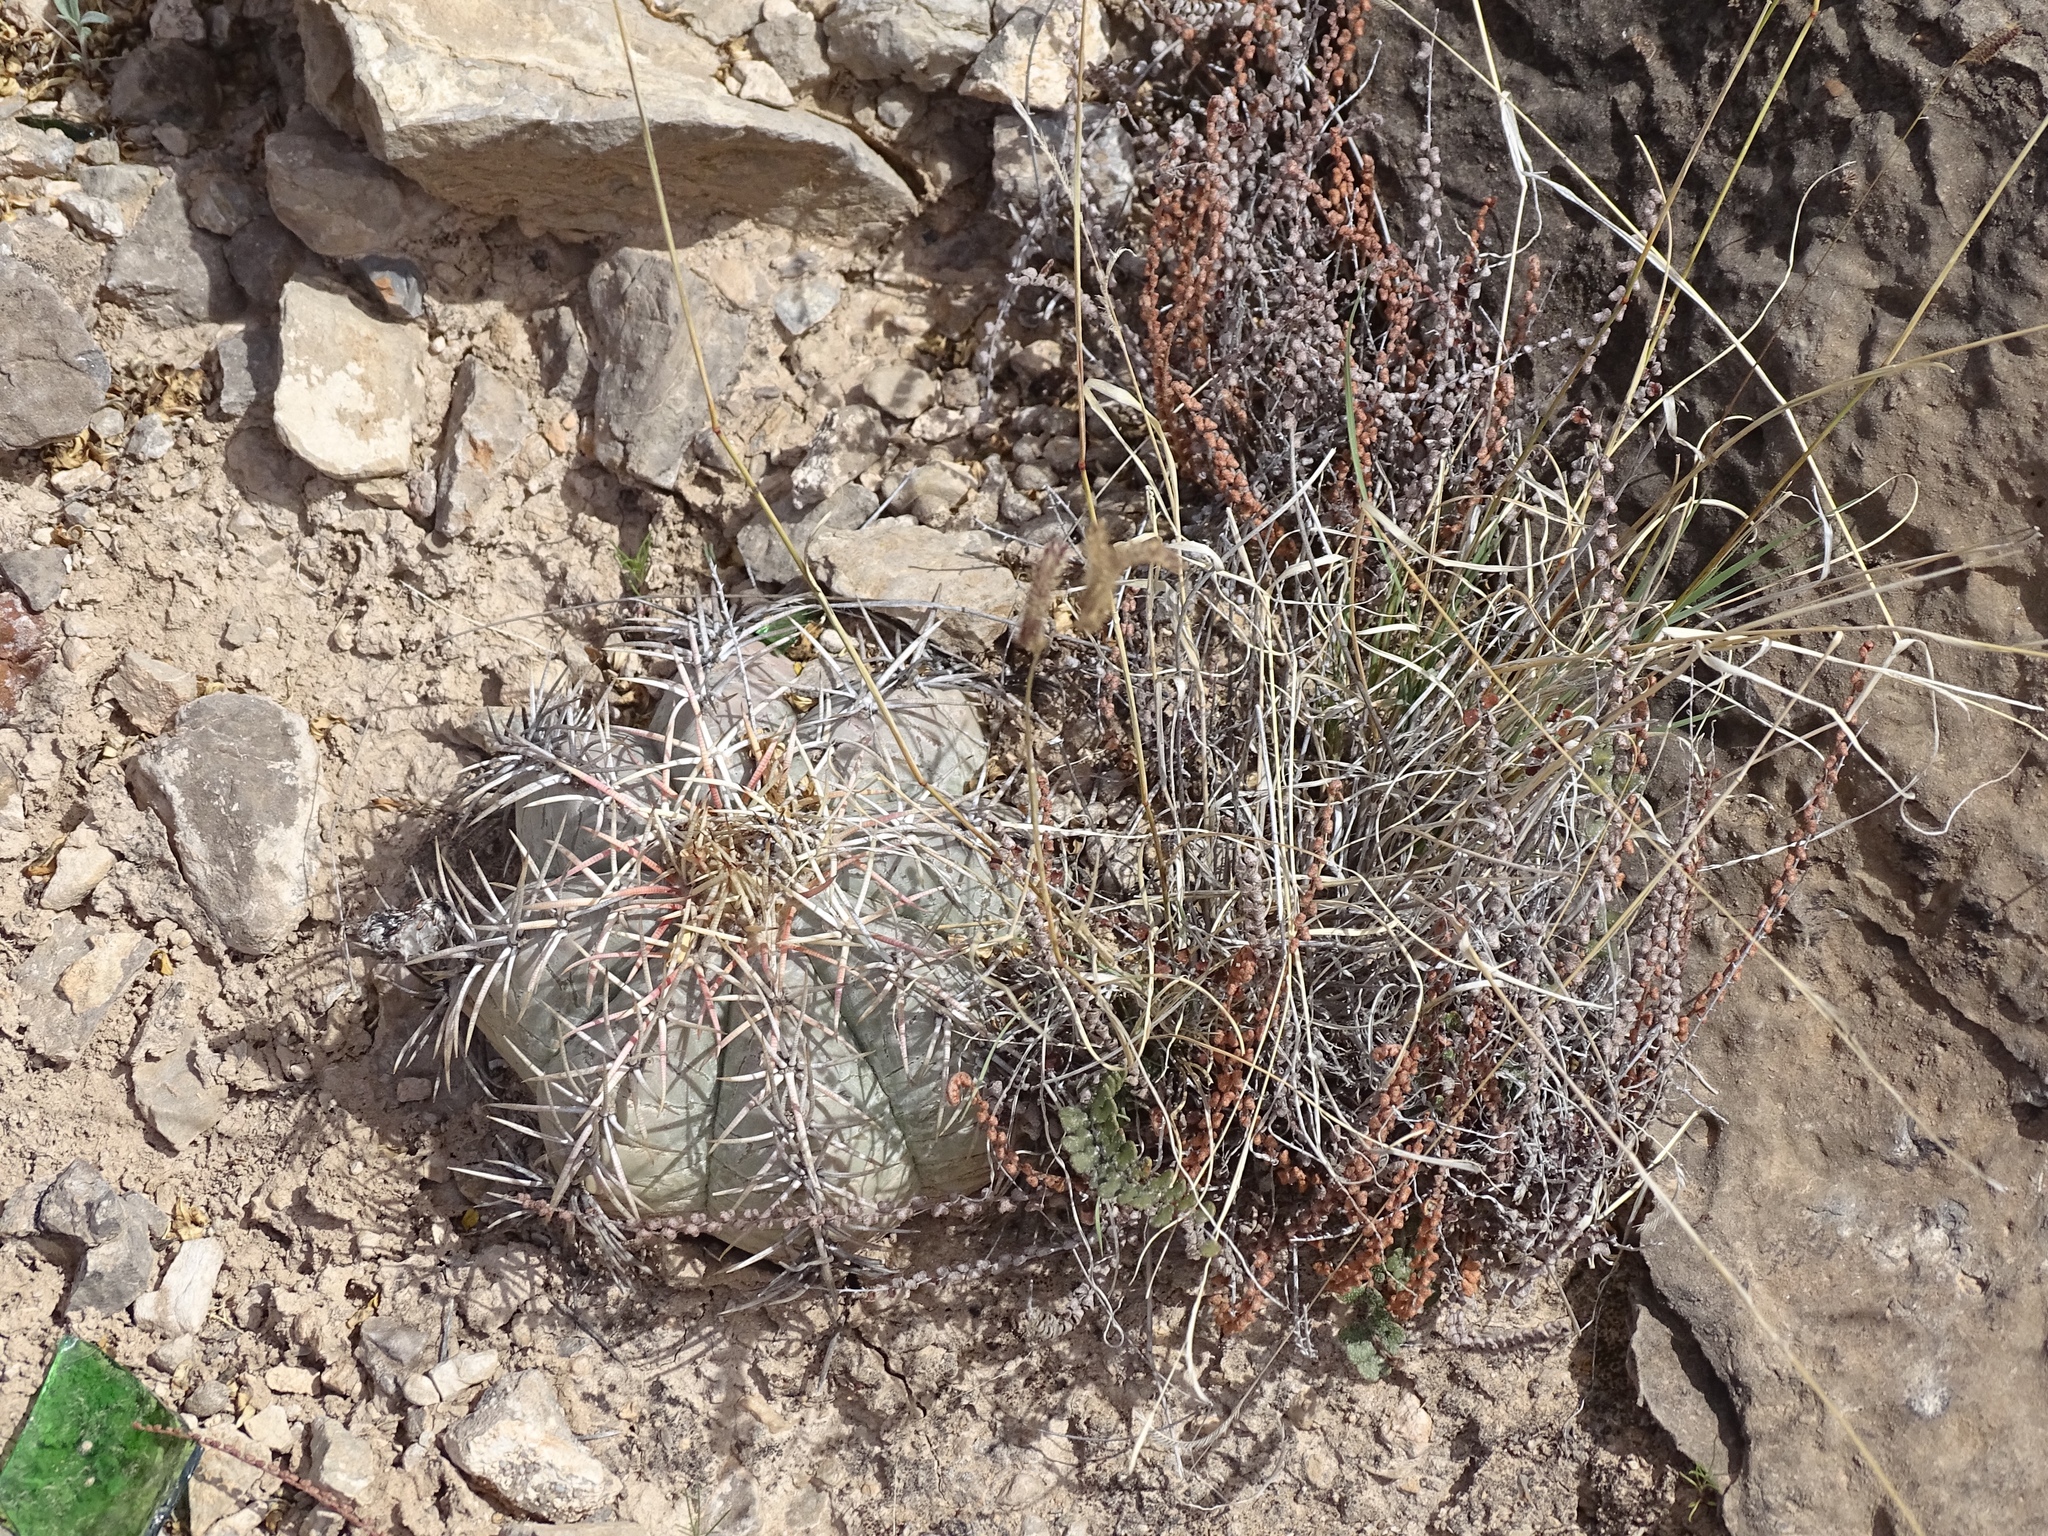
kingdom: Plantae
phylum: Tracheophyta
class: Magnoliopsida
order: Caryophyllales
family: Cactaceae
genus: Echinocactus
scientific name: Echinocactus horizonthalonius
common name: Devilshead
